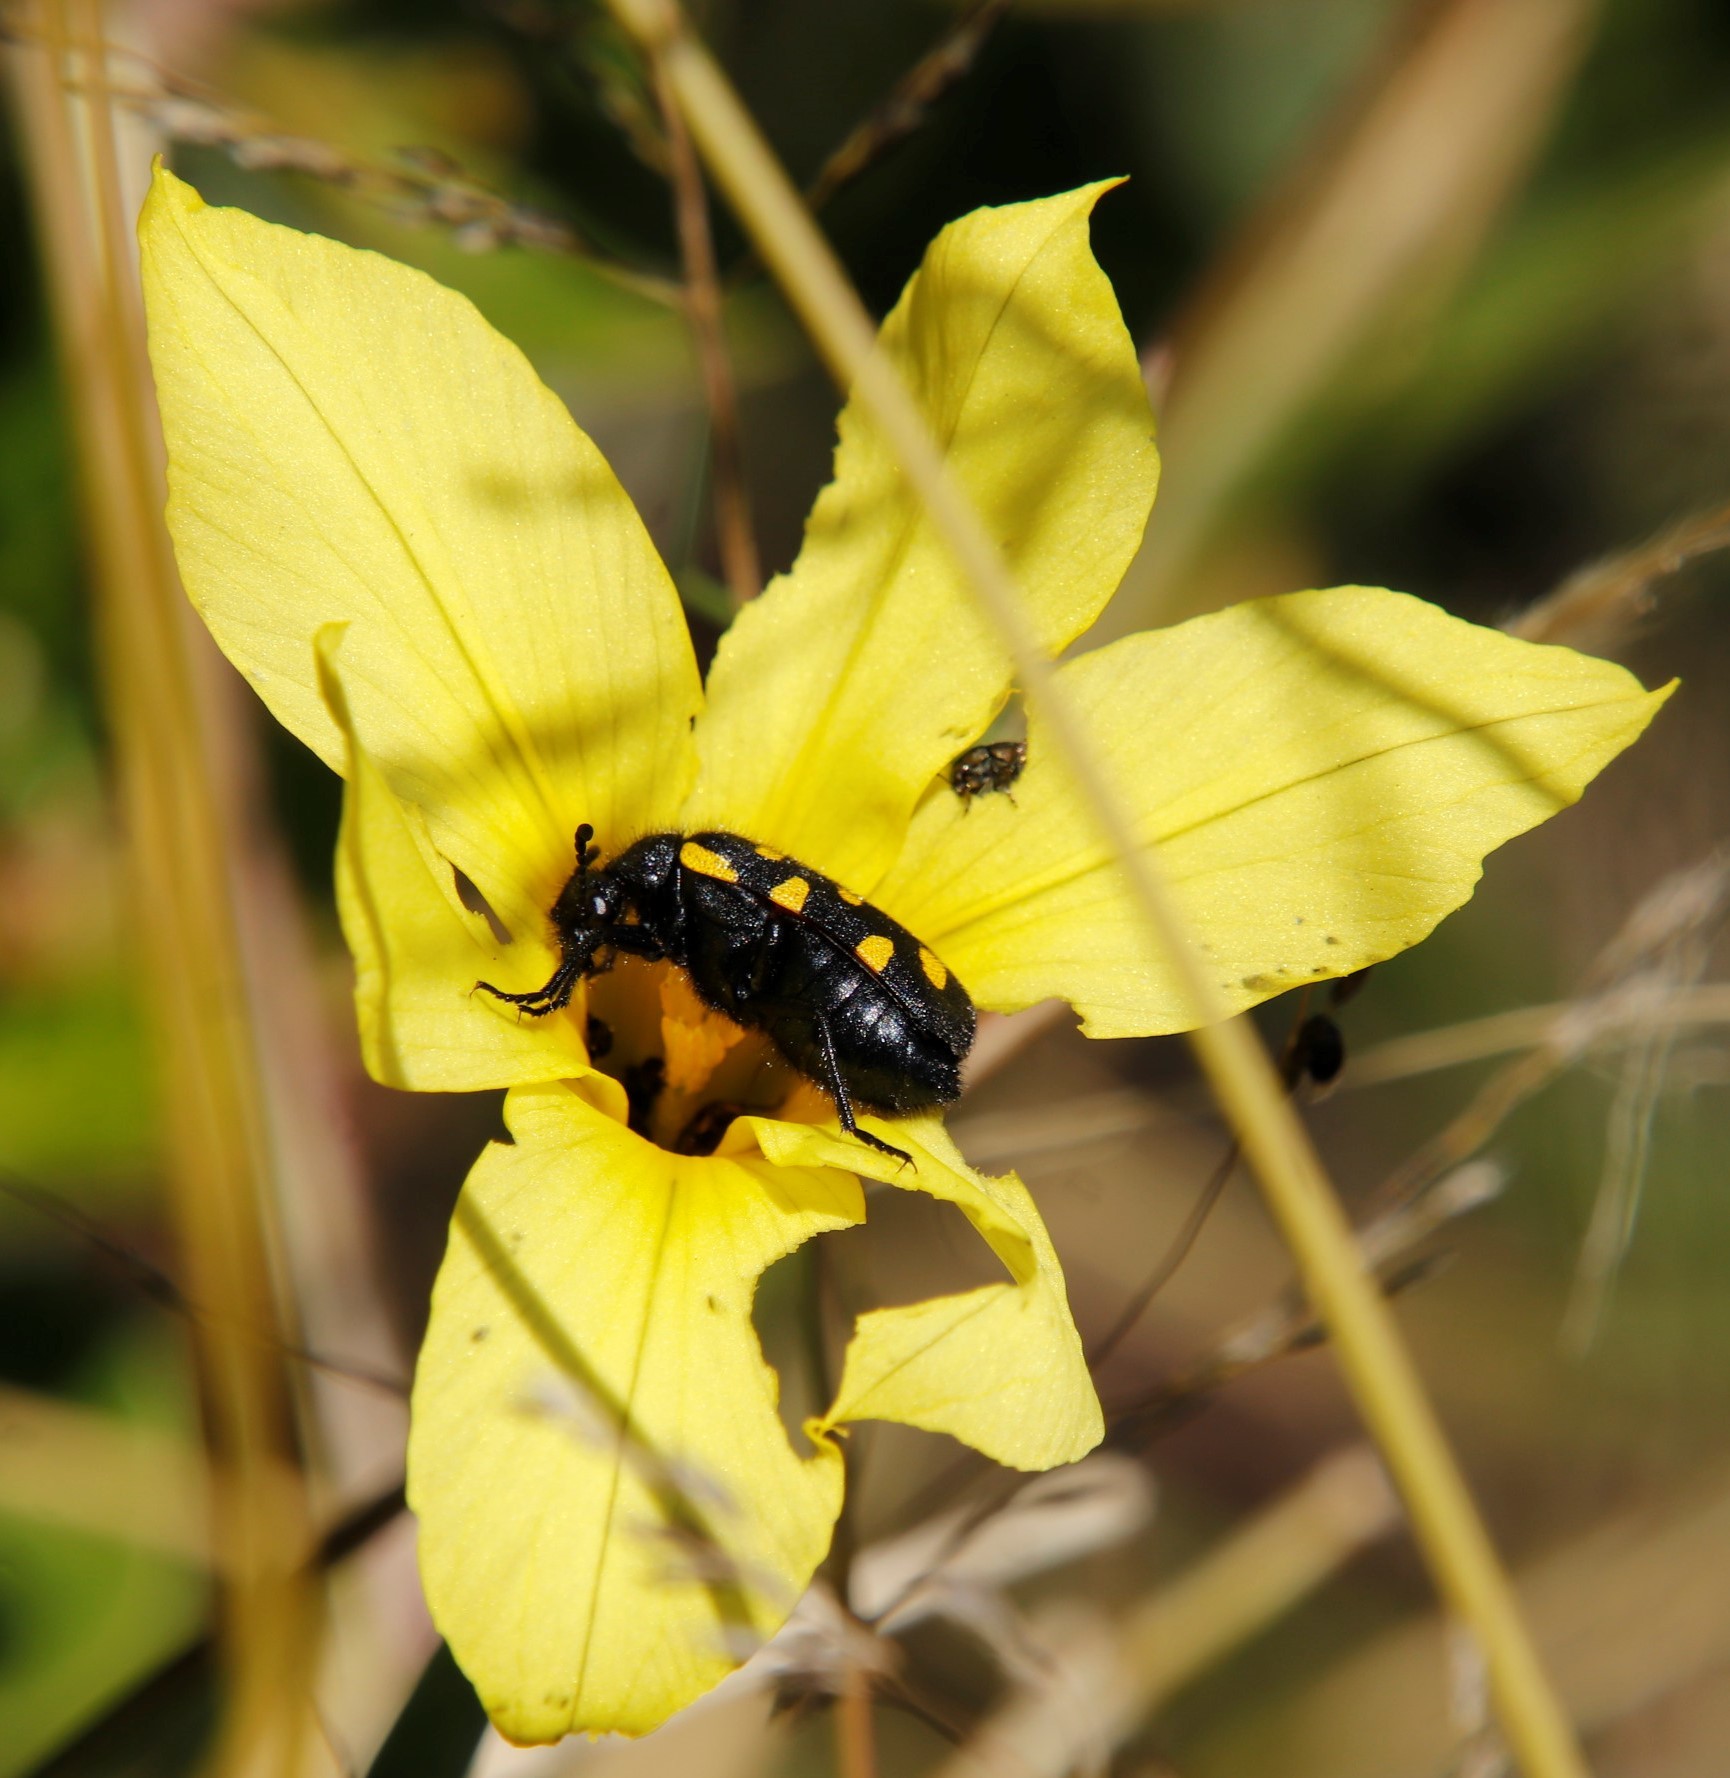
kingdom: Animalia
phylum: Arthropoda
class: Insecta
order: Coleoptera
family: Meloidae
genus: Ceroctis
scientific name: Ceroctis capensis
